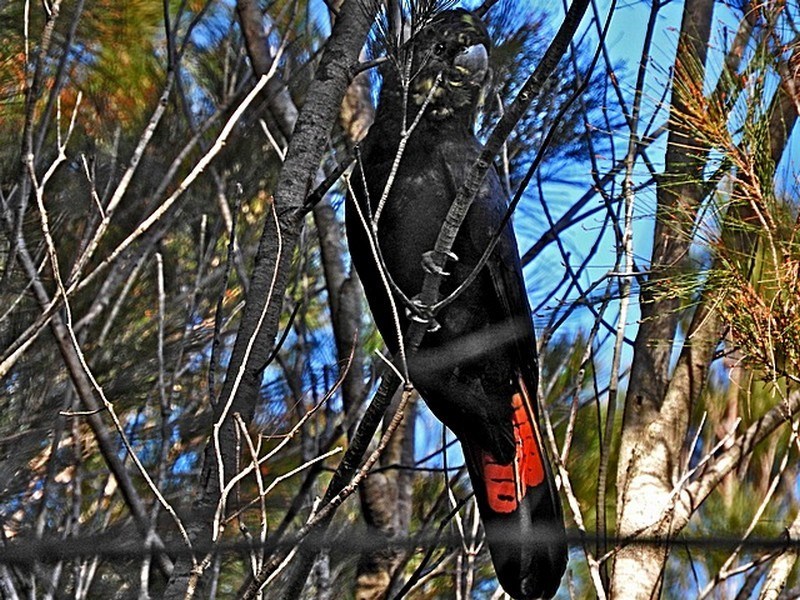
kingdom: Animalia
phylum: Chordata
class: Aves
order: Psittaciformes
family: Psittacidae
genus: Calyptorhynchus
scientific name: Calyptorhynchus lathami
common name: Glossy black cockatoo
